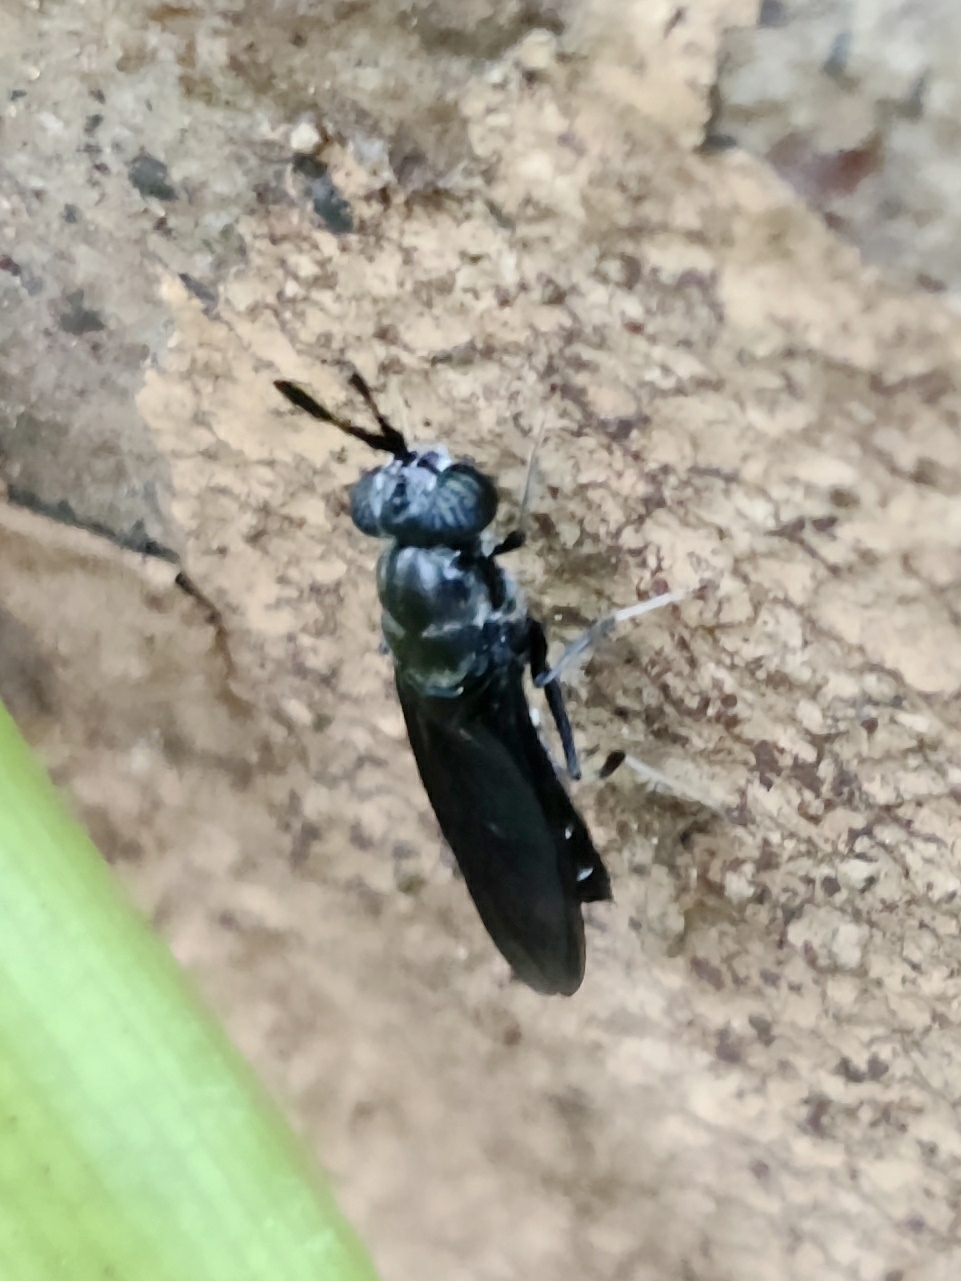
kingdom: Animalia
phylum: Arthropoda
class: Insecta
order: Diptera
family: Stratiomyidae
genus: Hermetia
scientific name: Hermetia illucens
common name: Black soldier fly
